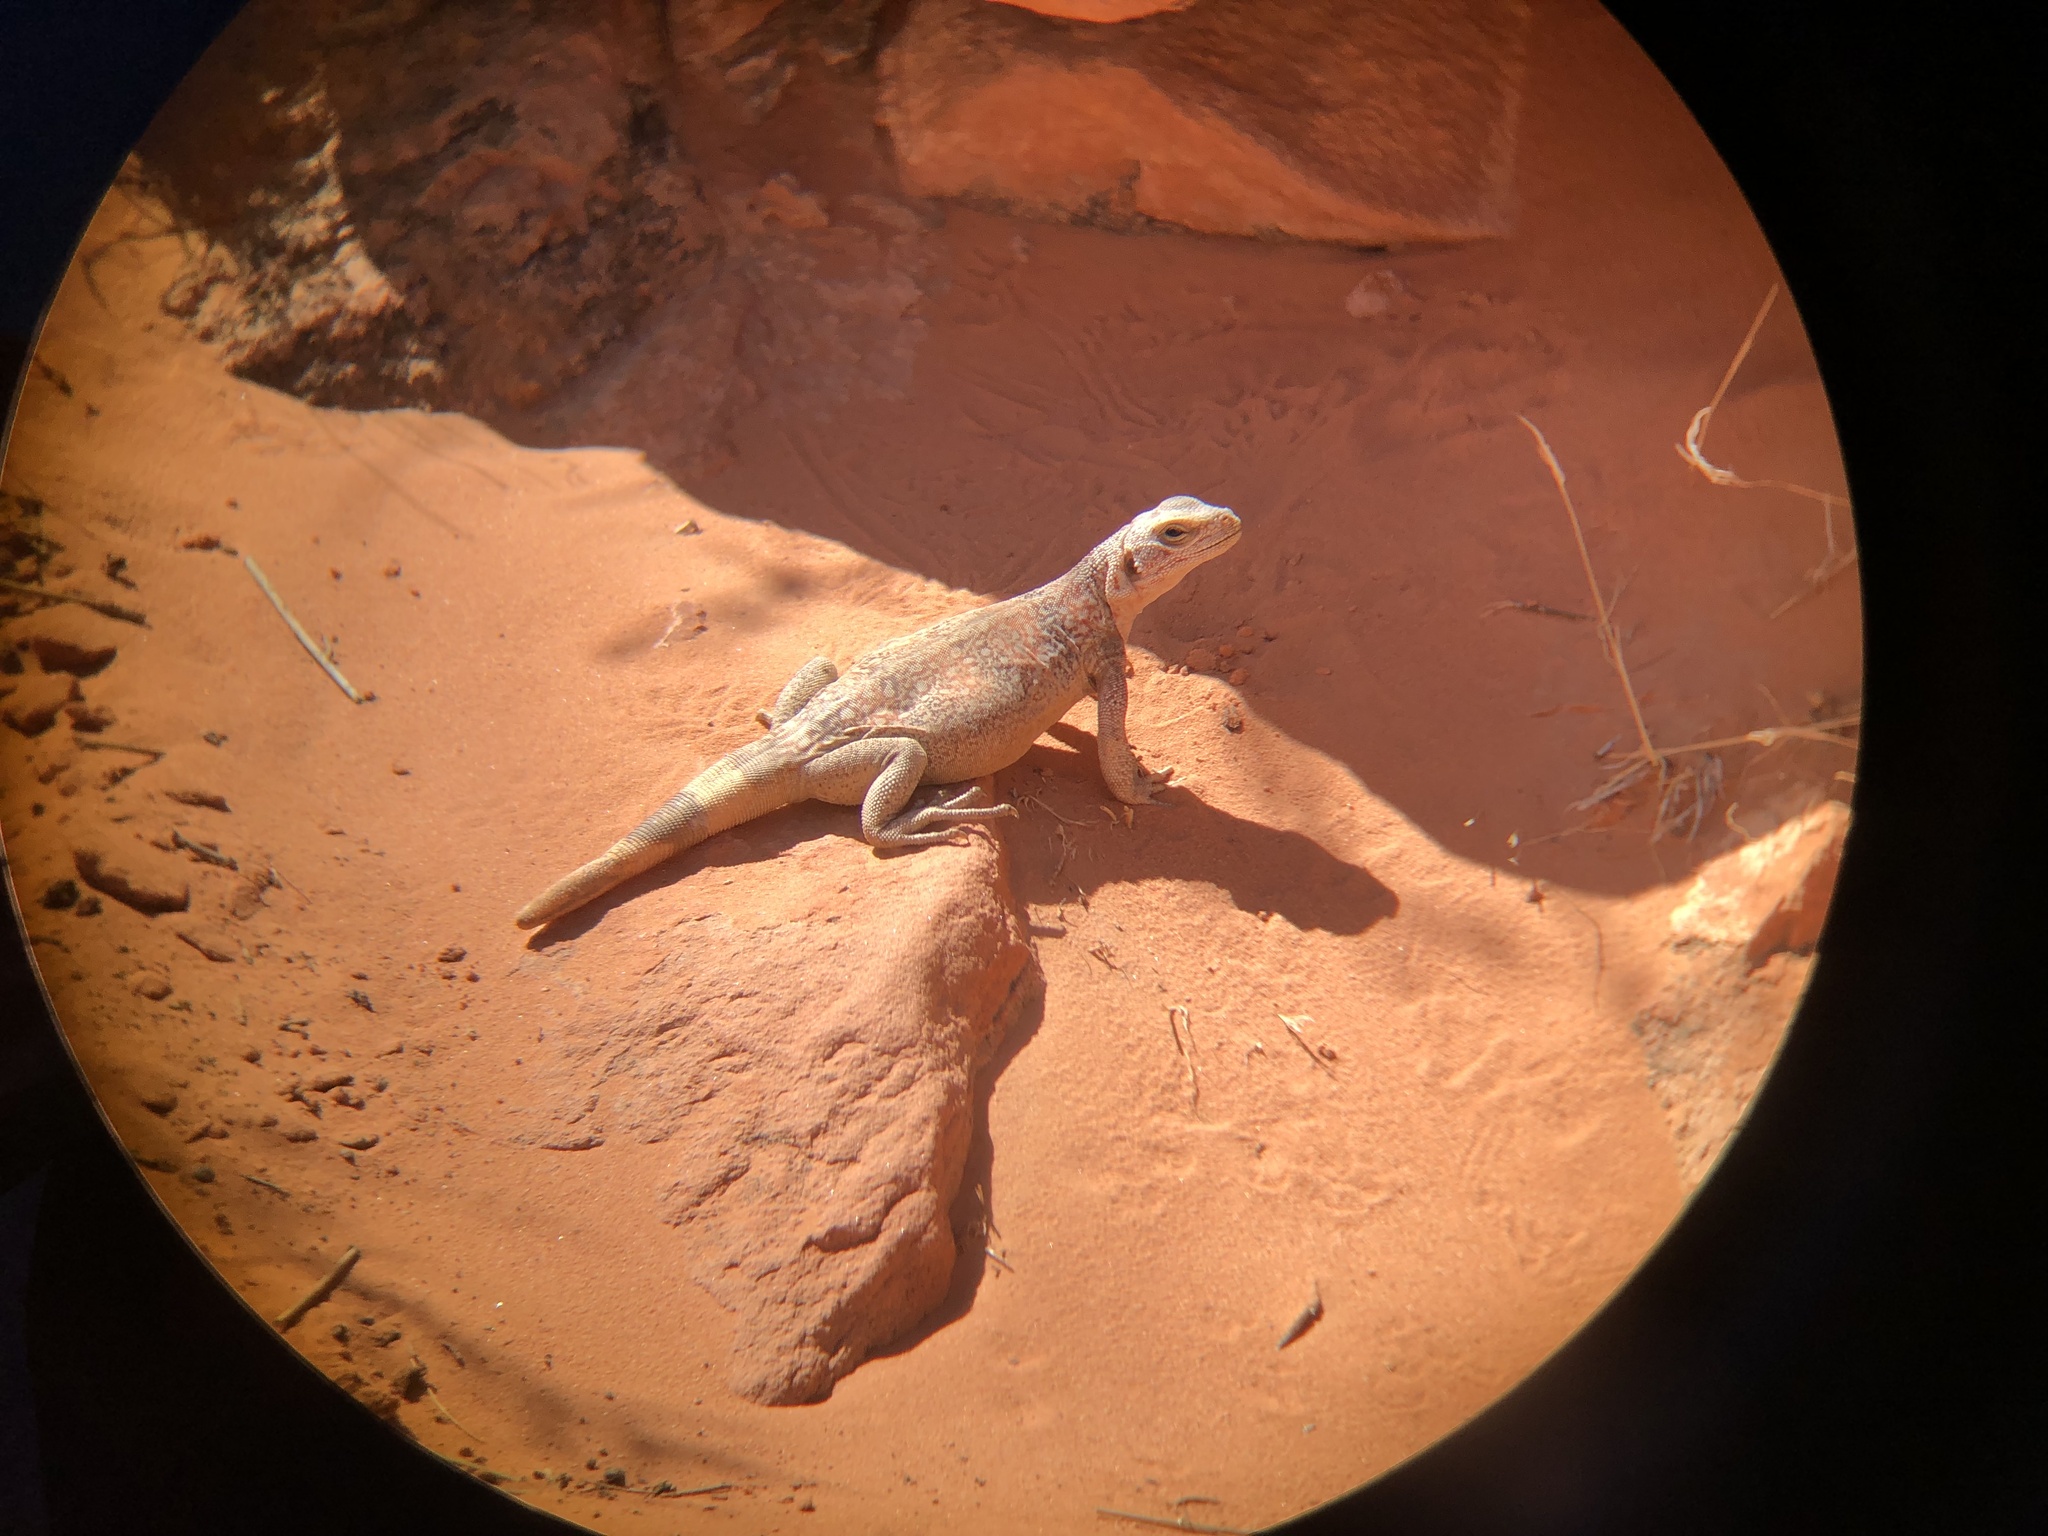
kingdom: Animalia
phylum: Chordata
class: Squamata
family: Iguanidae
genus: Sauromalus
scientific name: Sauromalus ater
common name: Northern chuckwalla
